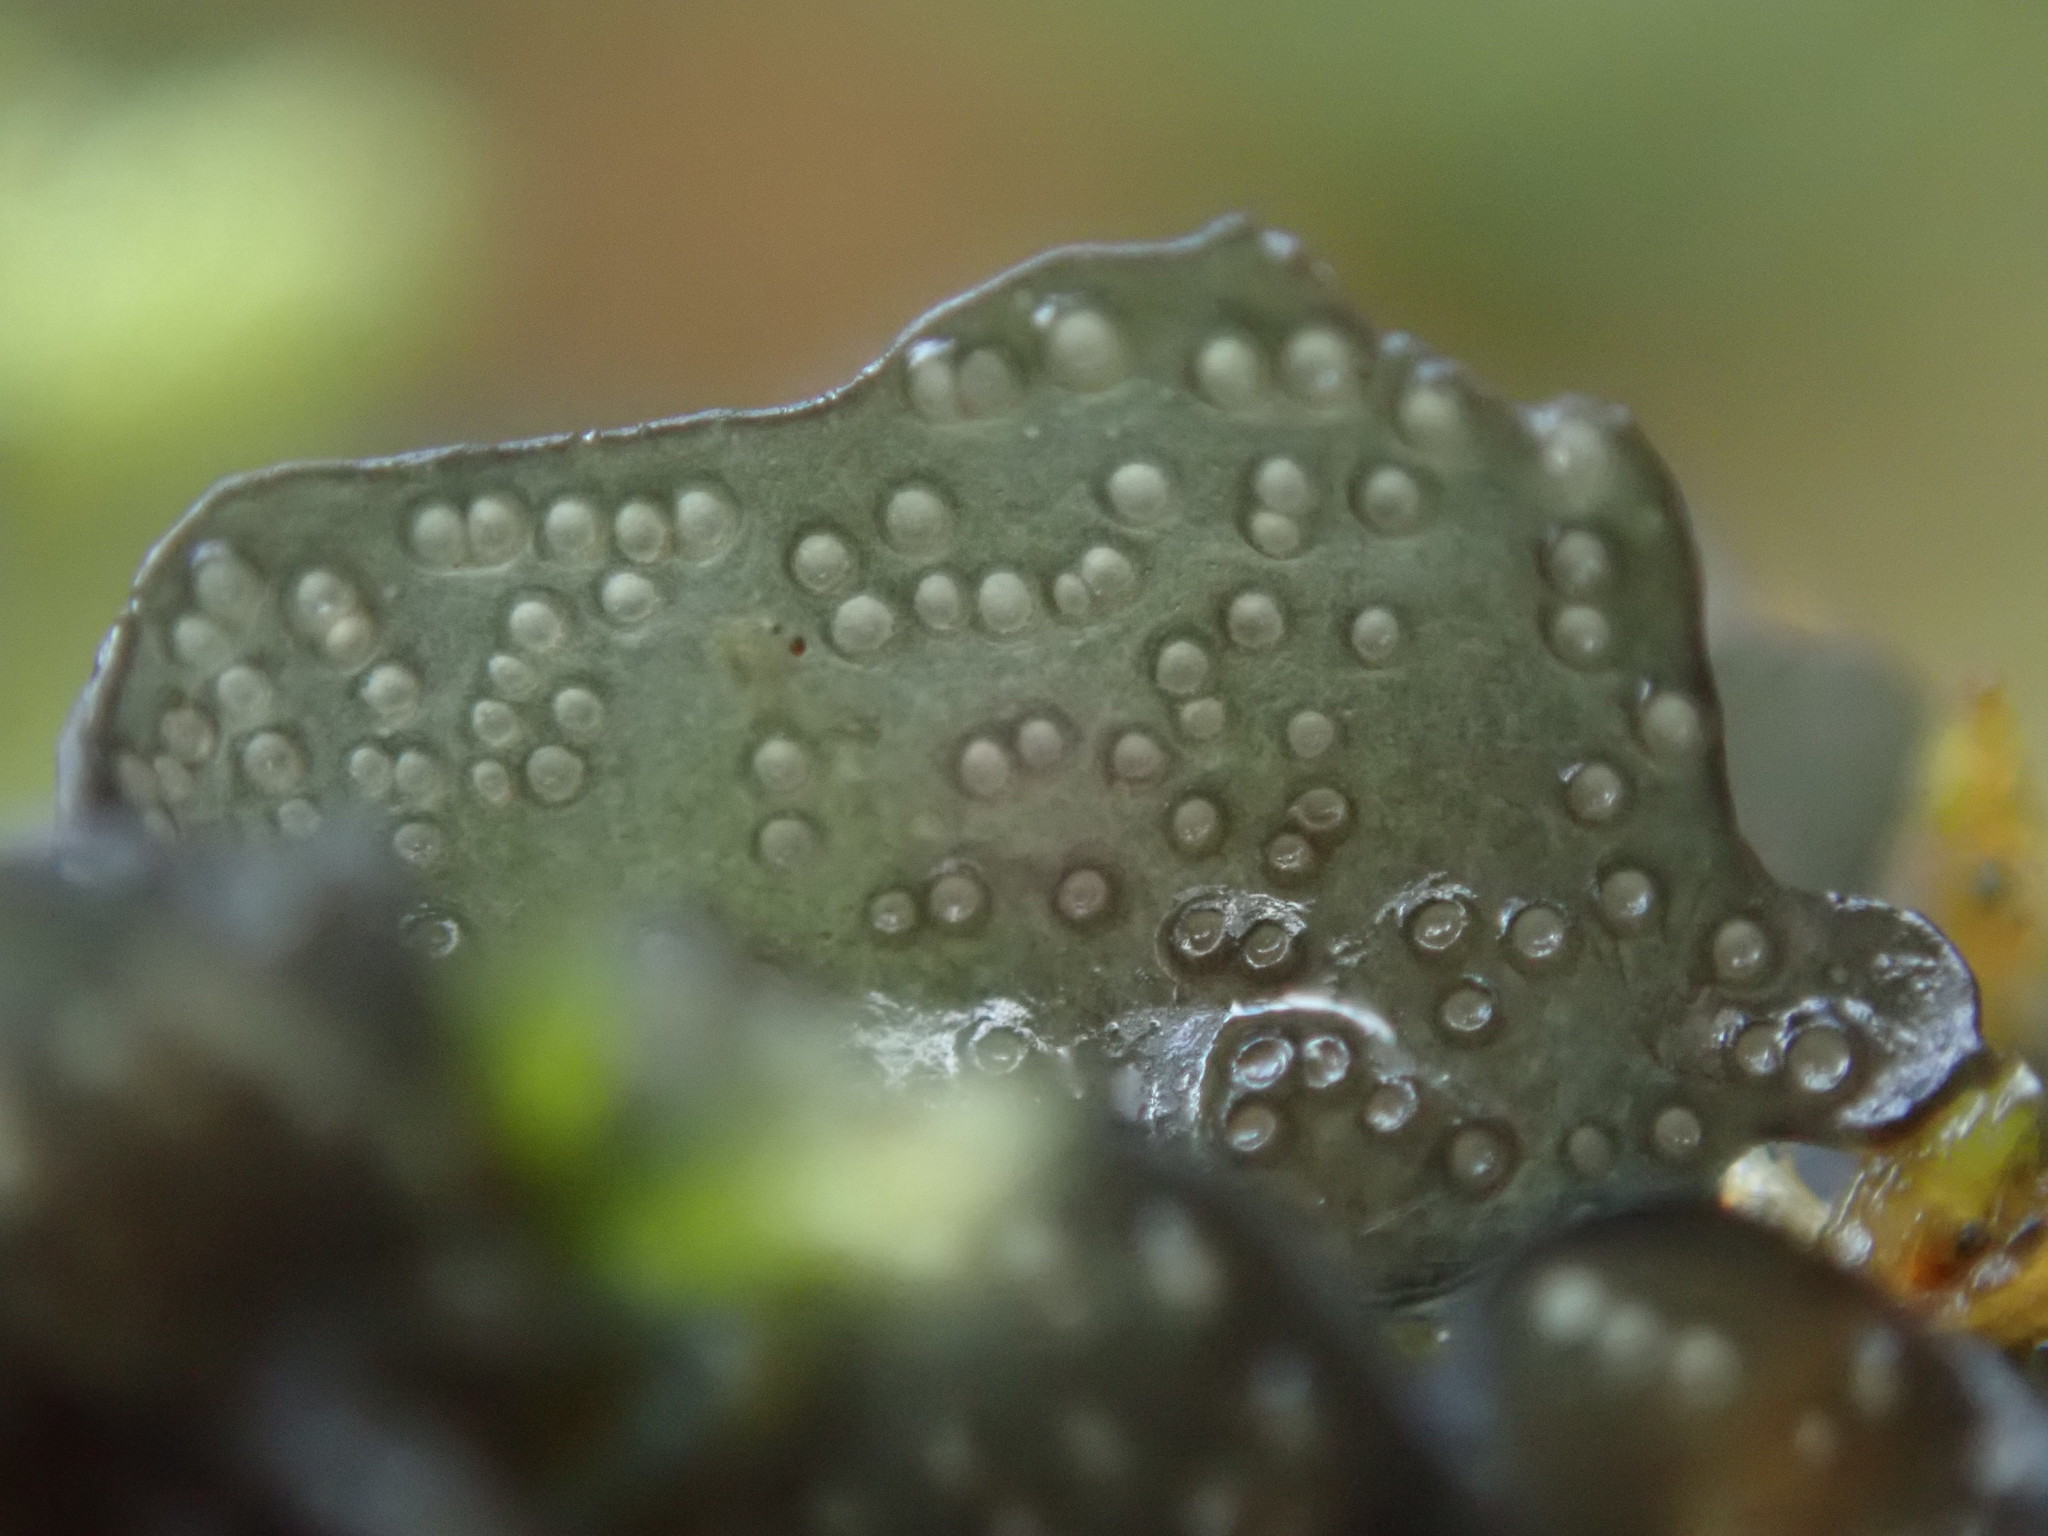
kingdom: Fungi
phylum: Ascomycota
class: Lecanoromycetes
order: Peltigerales
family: Collemataceae
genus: Scytinium
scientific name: Scytinium platynum
